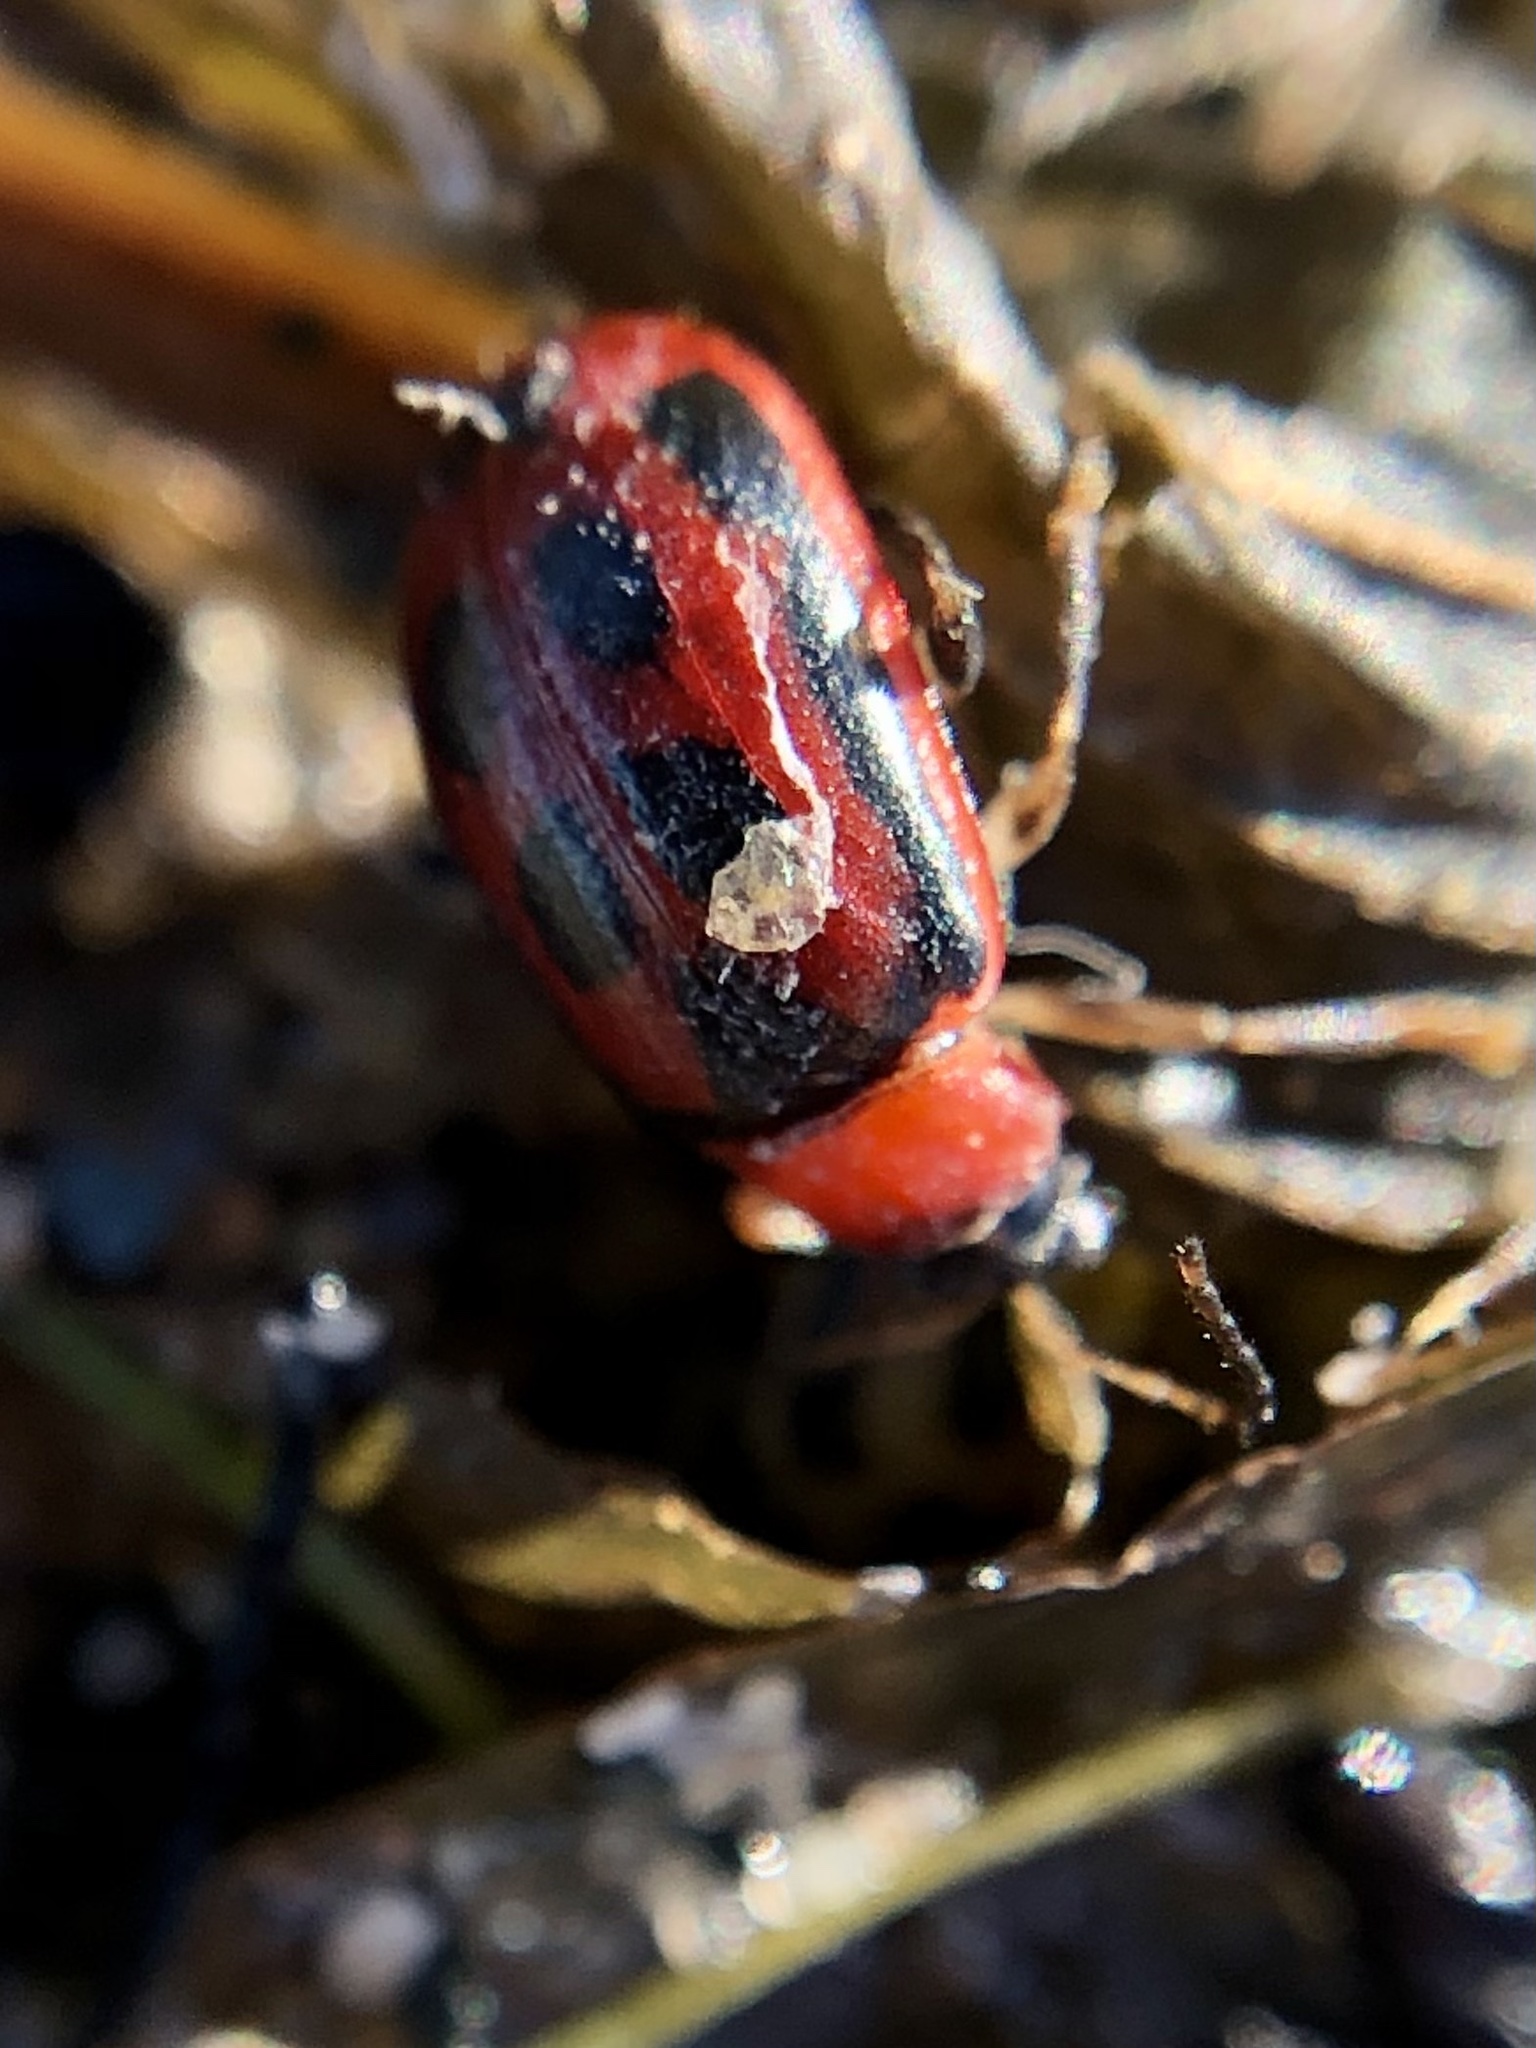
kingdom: Animalia
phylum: Arthropoda
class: Insecta
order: Coleoptera
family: Chrysomelidae
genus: Cerotoma
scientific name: Cerotoma trifurcata
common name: Bean leaf beetle
